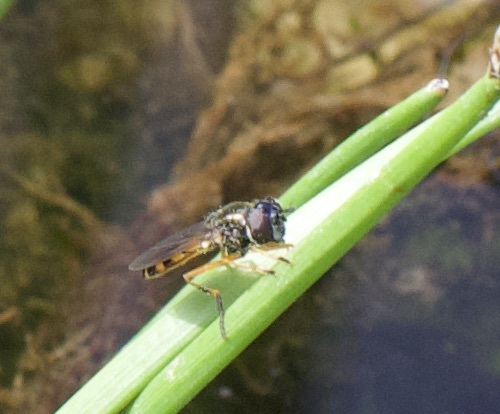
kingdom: Animalia
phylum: Arthropoda
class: Insecta
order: Diptera
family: Syrphidae
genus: Pyrophaena
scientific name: Pyrophaena granditarsa
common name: Hornhand sedgesitter
